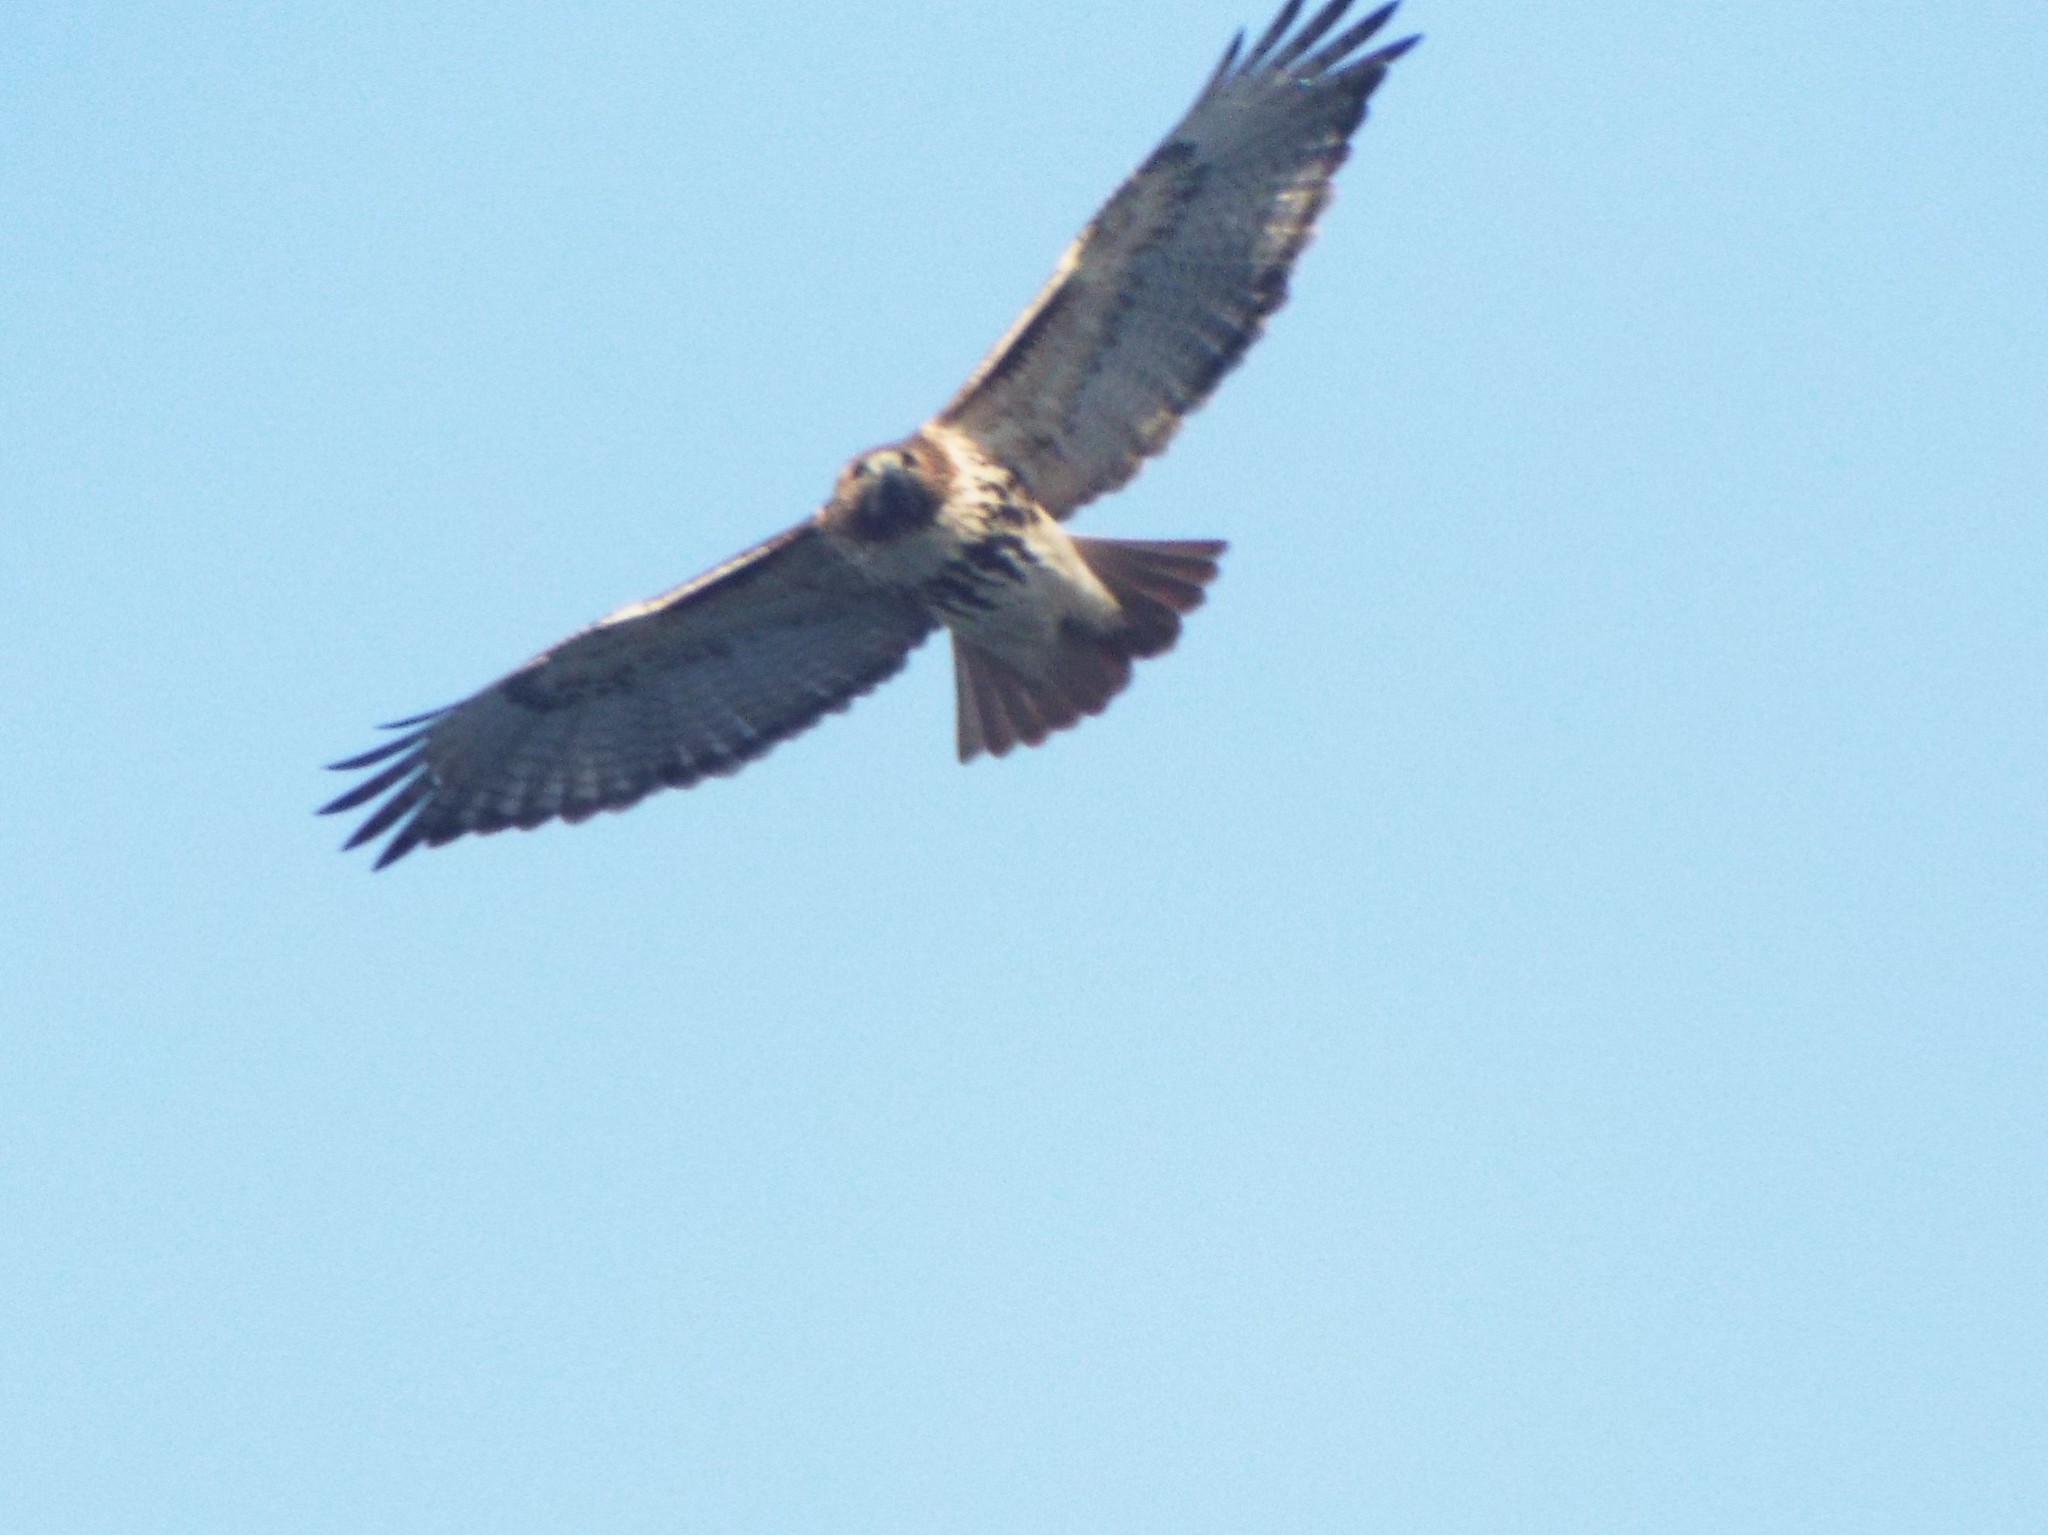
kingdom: Animalia
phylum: Chordata
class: Aves
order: Accipitriformes
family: Accipitridae
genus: Buteo
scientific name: Buteo jamaicensis
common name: Red-tailed hawk
